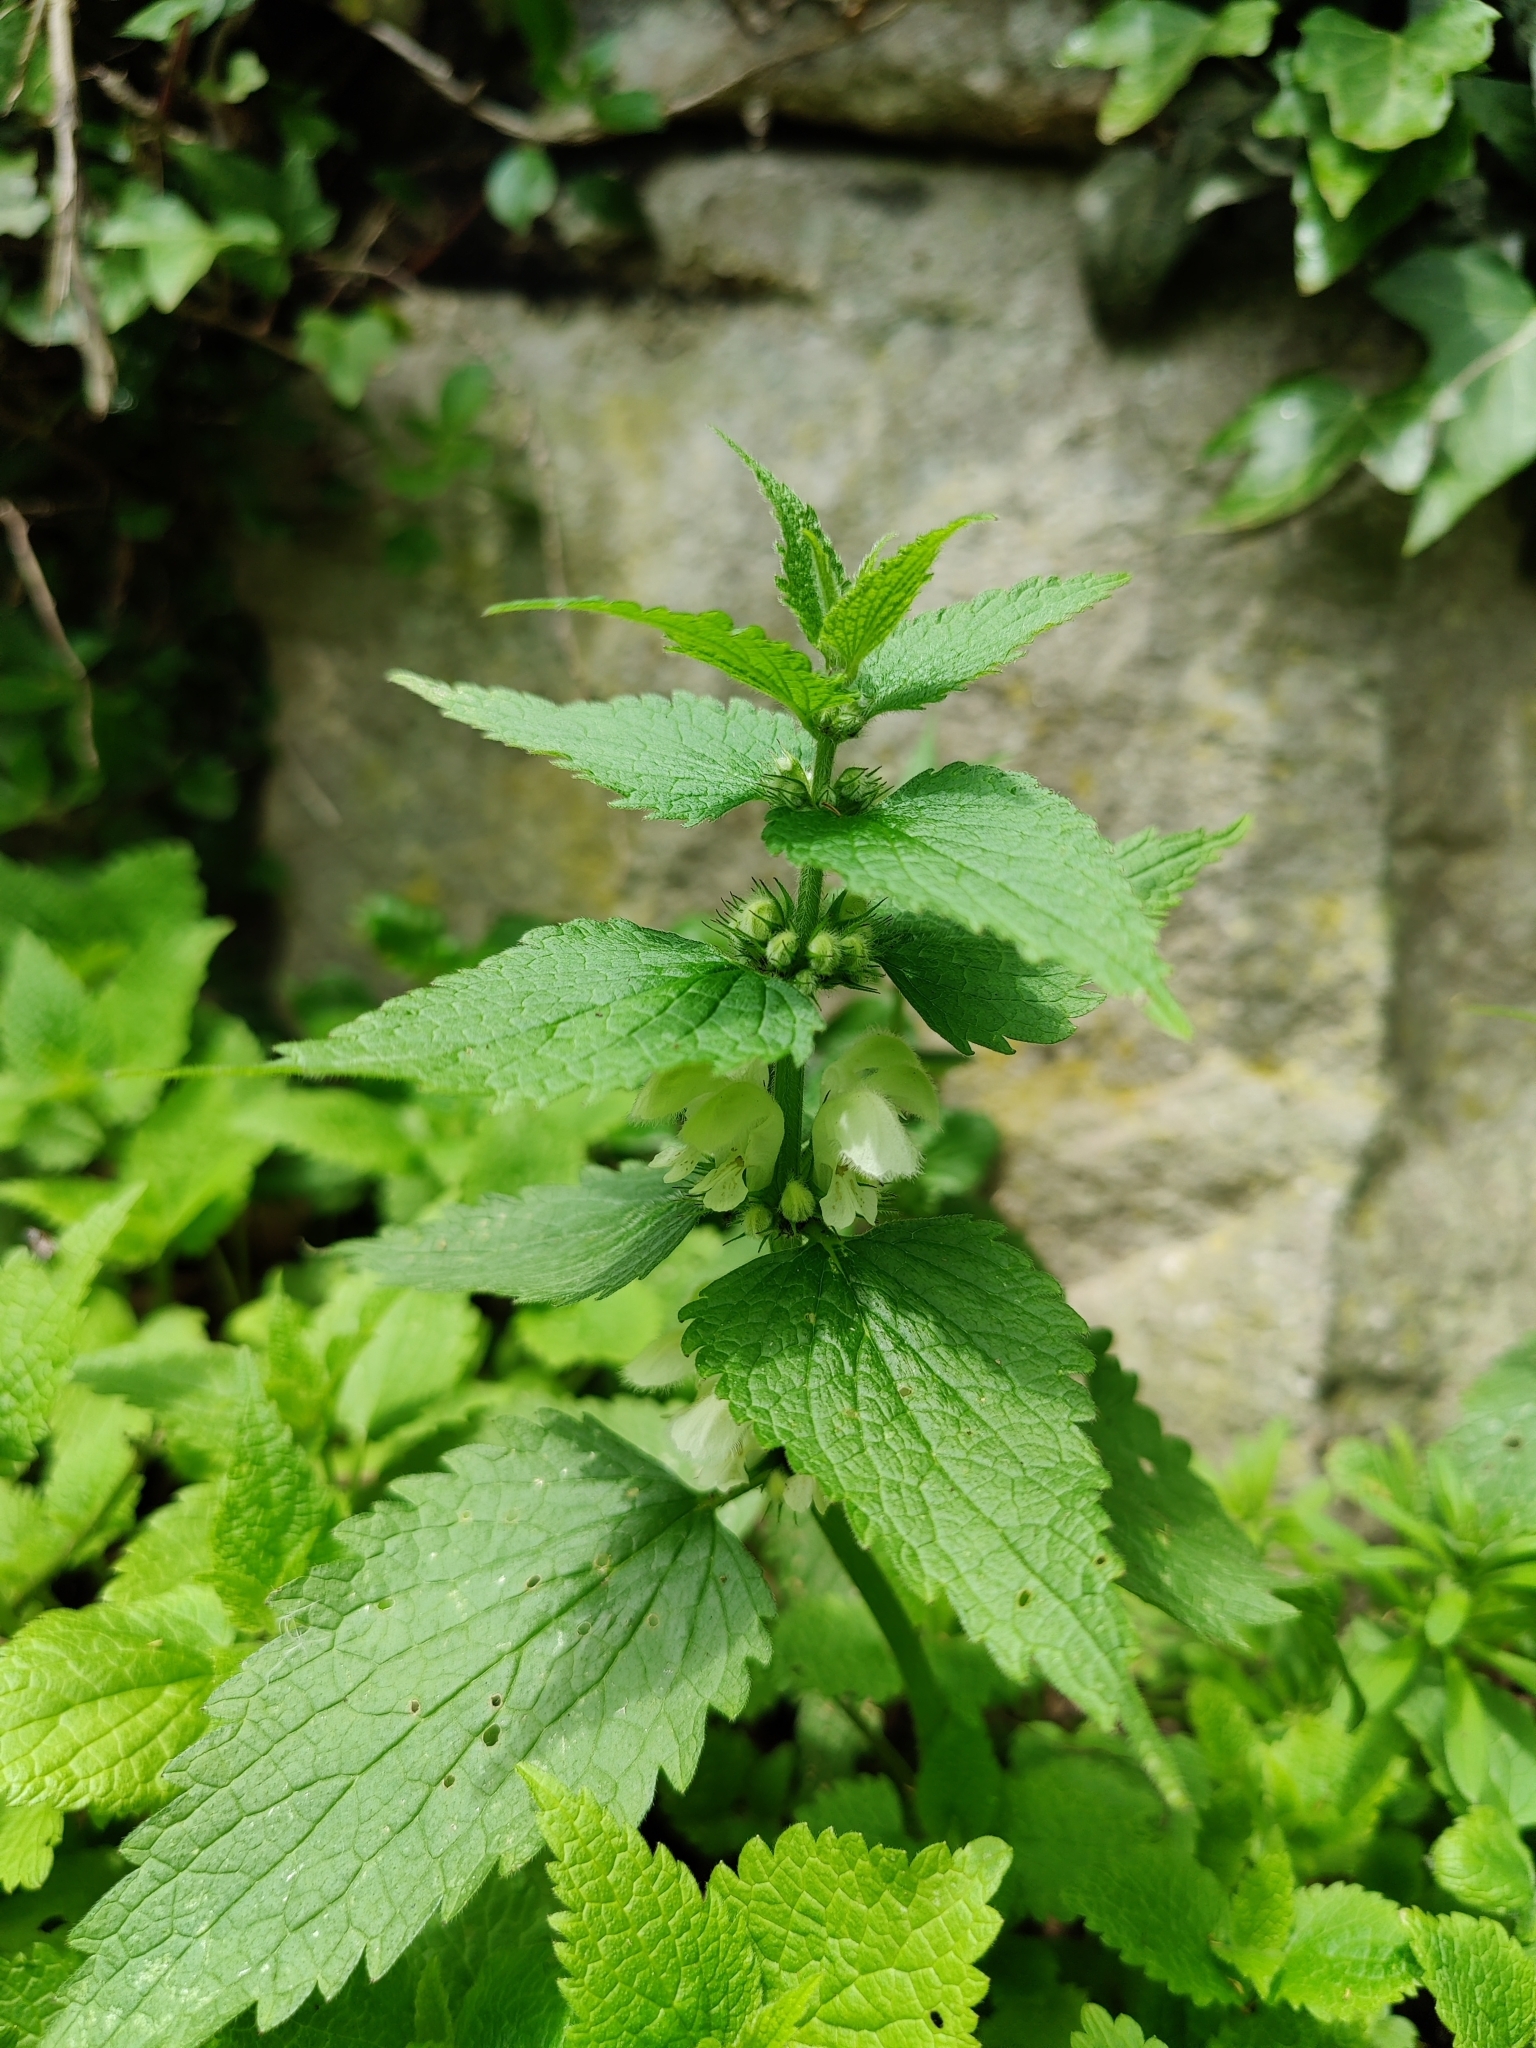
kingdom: Plantae
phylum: Tracheophyta
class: Magnoliopsida
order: Lamiales
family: Lamiaceae
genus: Lamium
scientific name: Lamium album
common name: White dead-nettle
